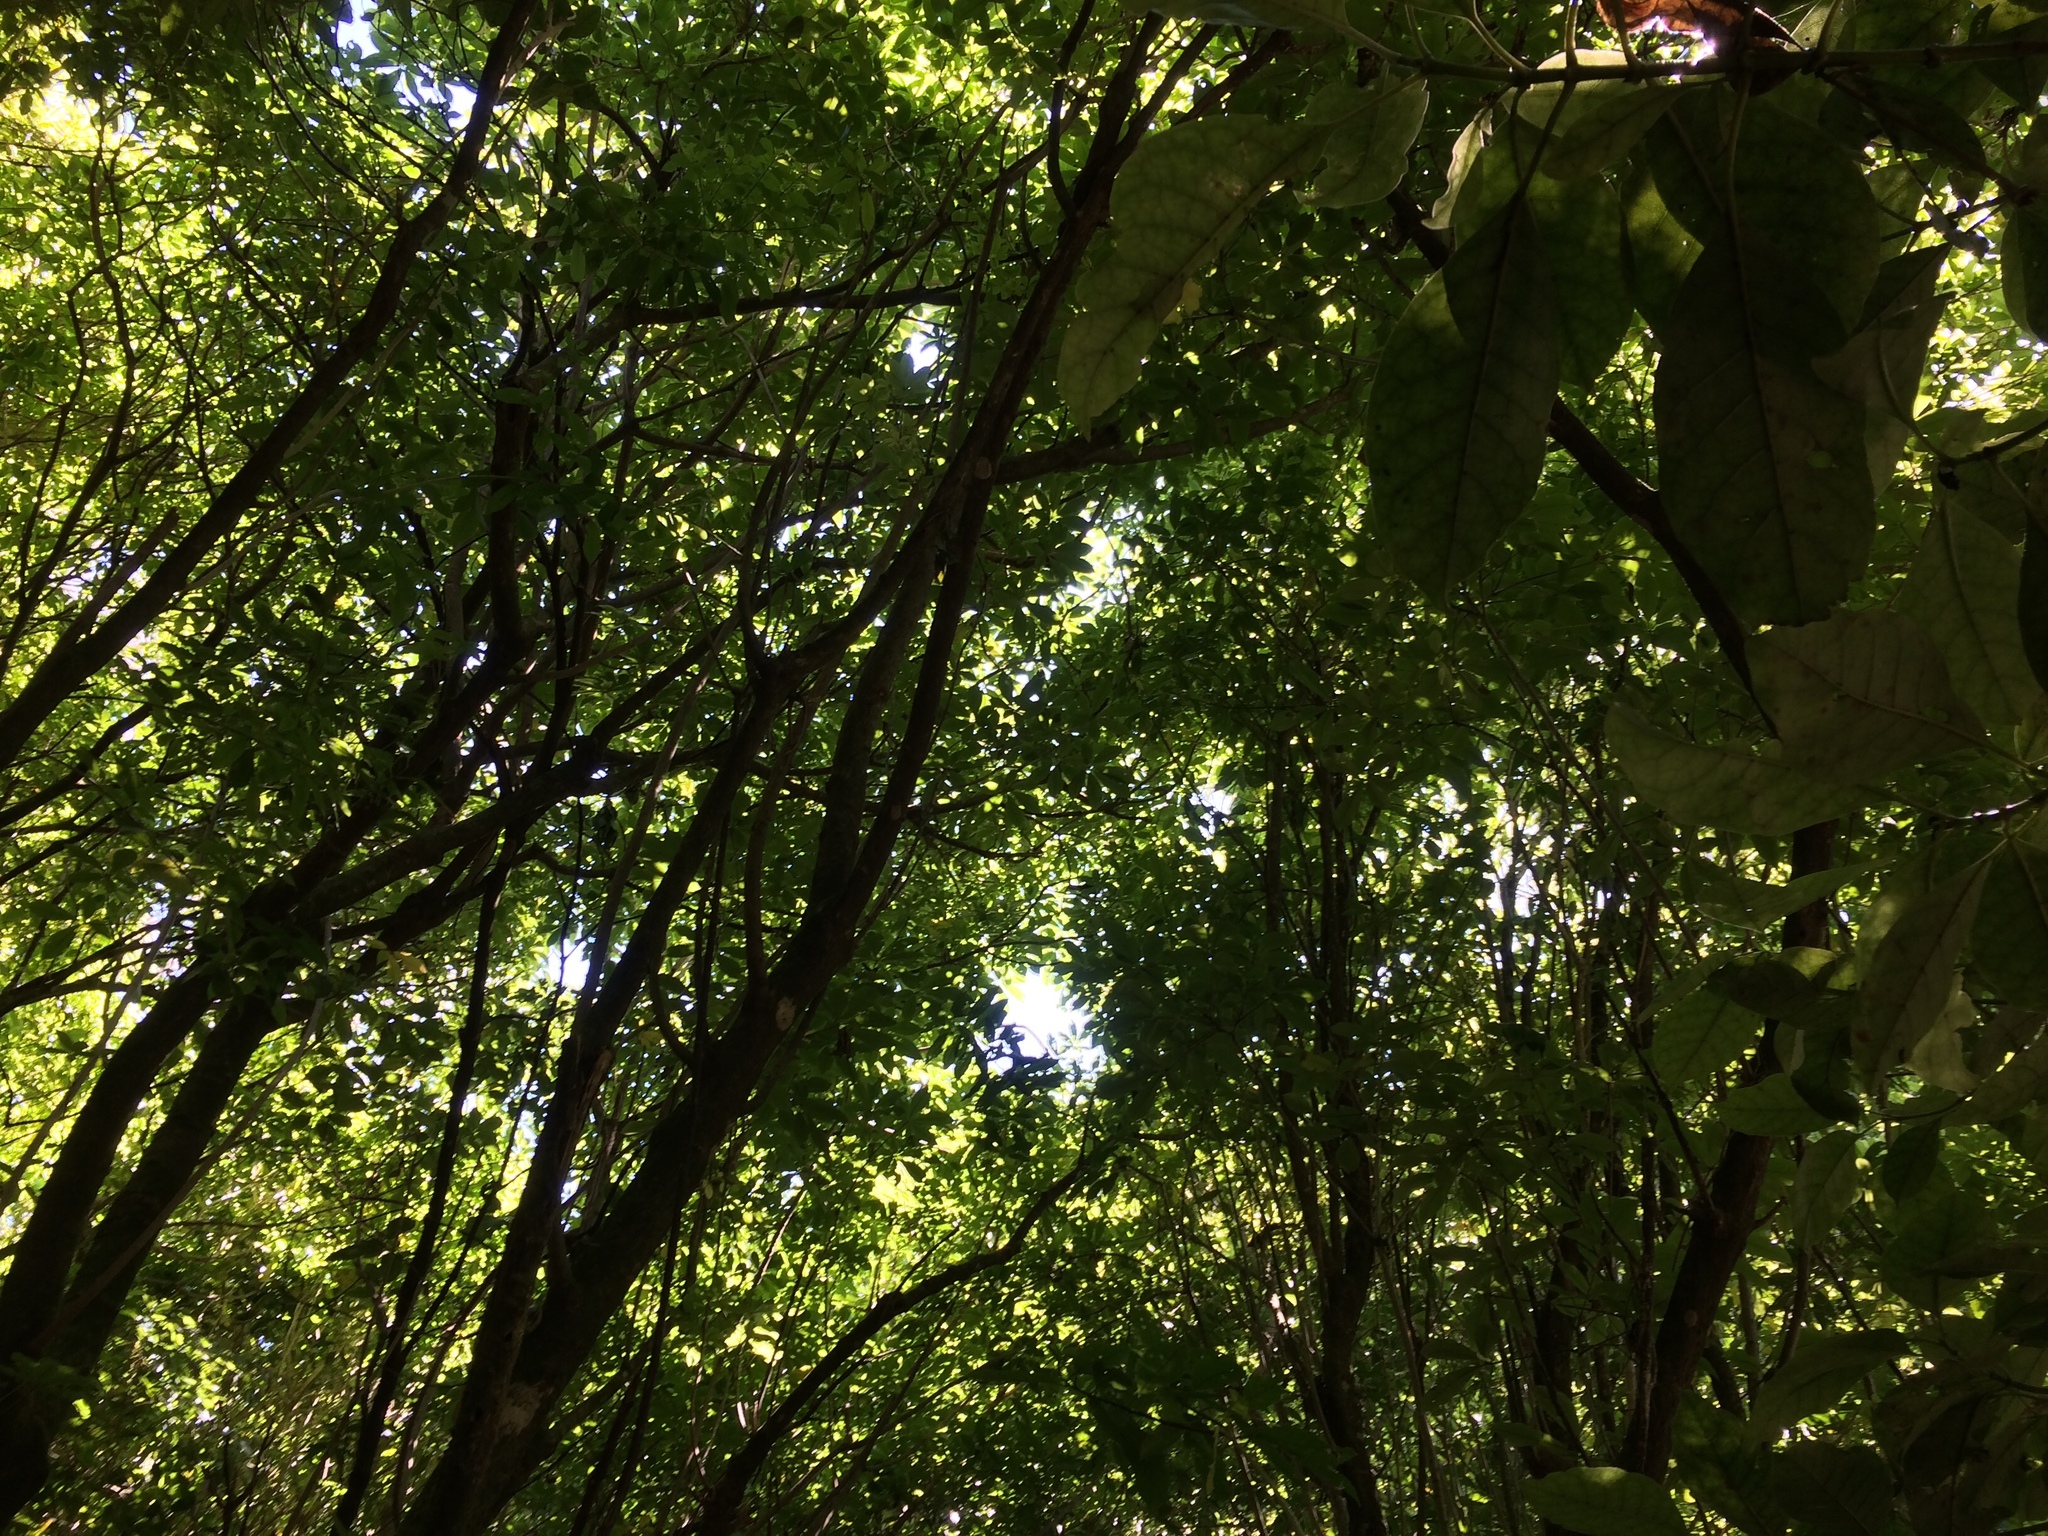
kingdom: Animalia
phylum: Chordata
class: Aves
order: Passeriformes
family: Callaeatidae
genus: Philesturnus
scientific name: Philesturnus carunculatus
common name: South island saddleback
